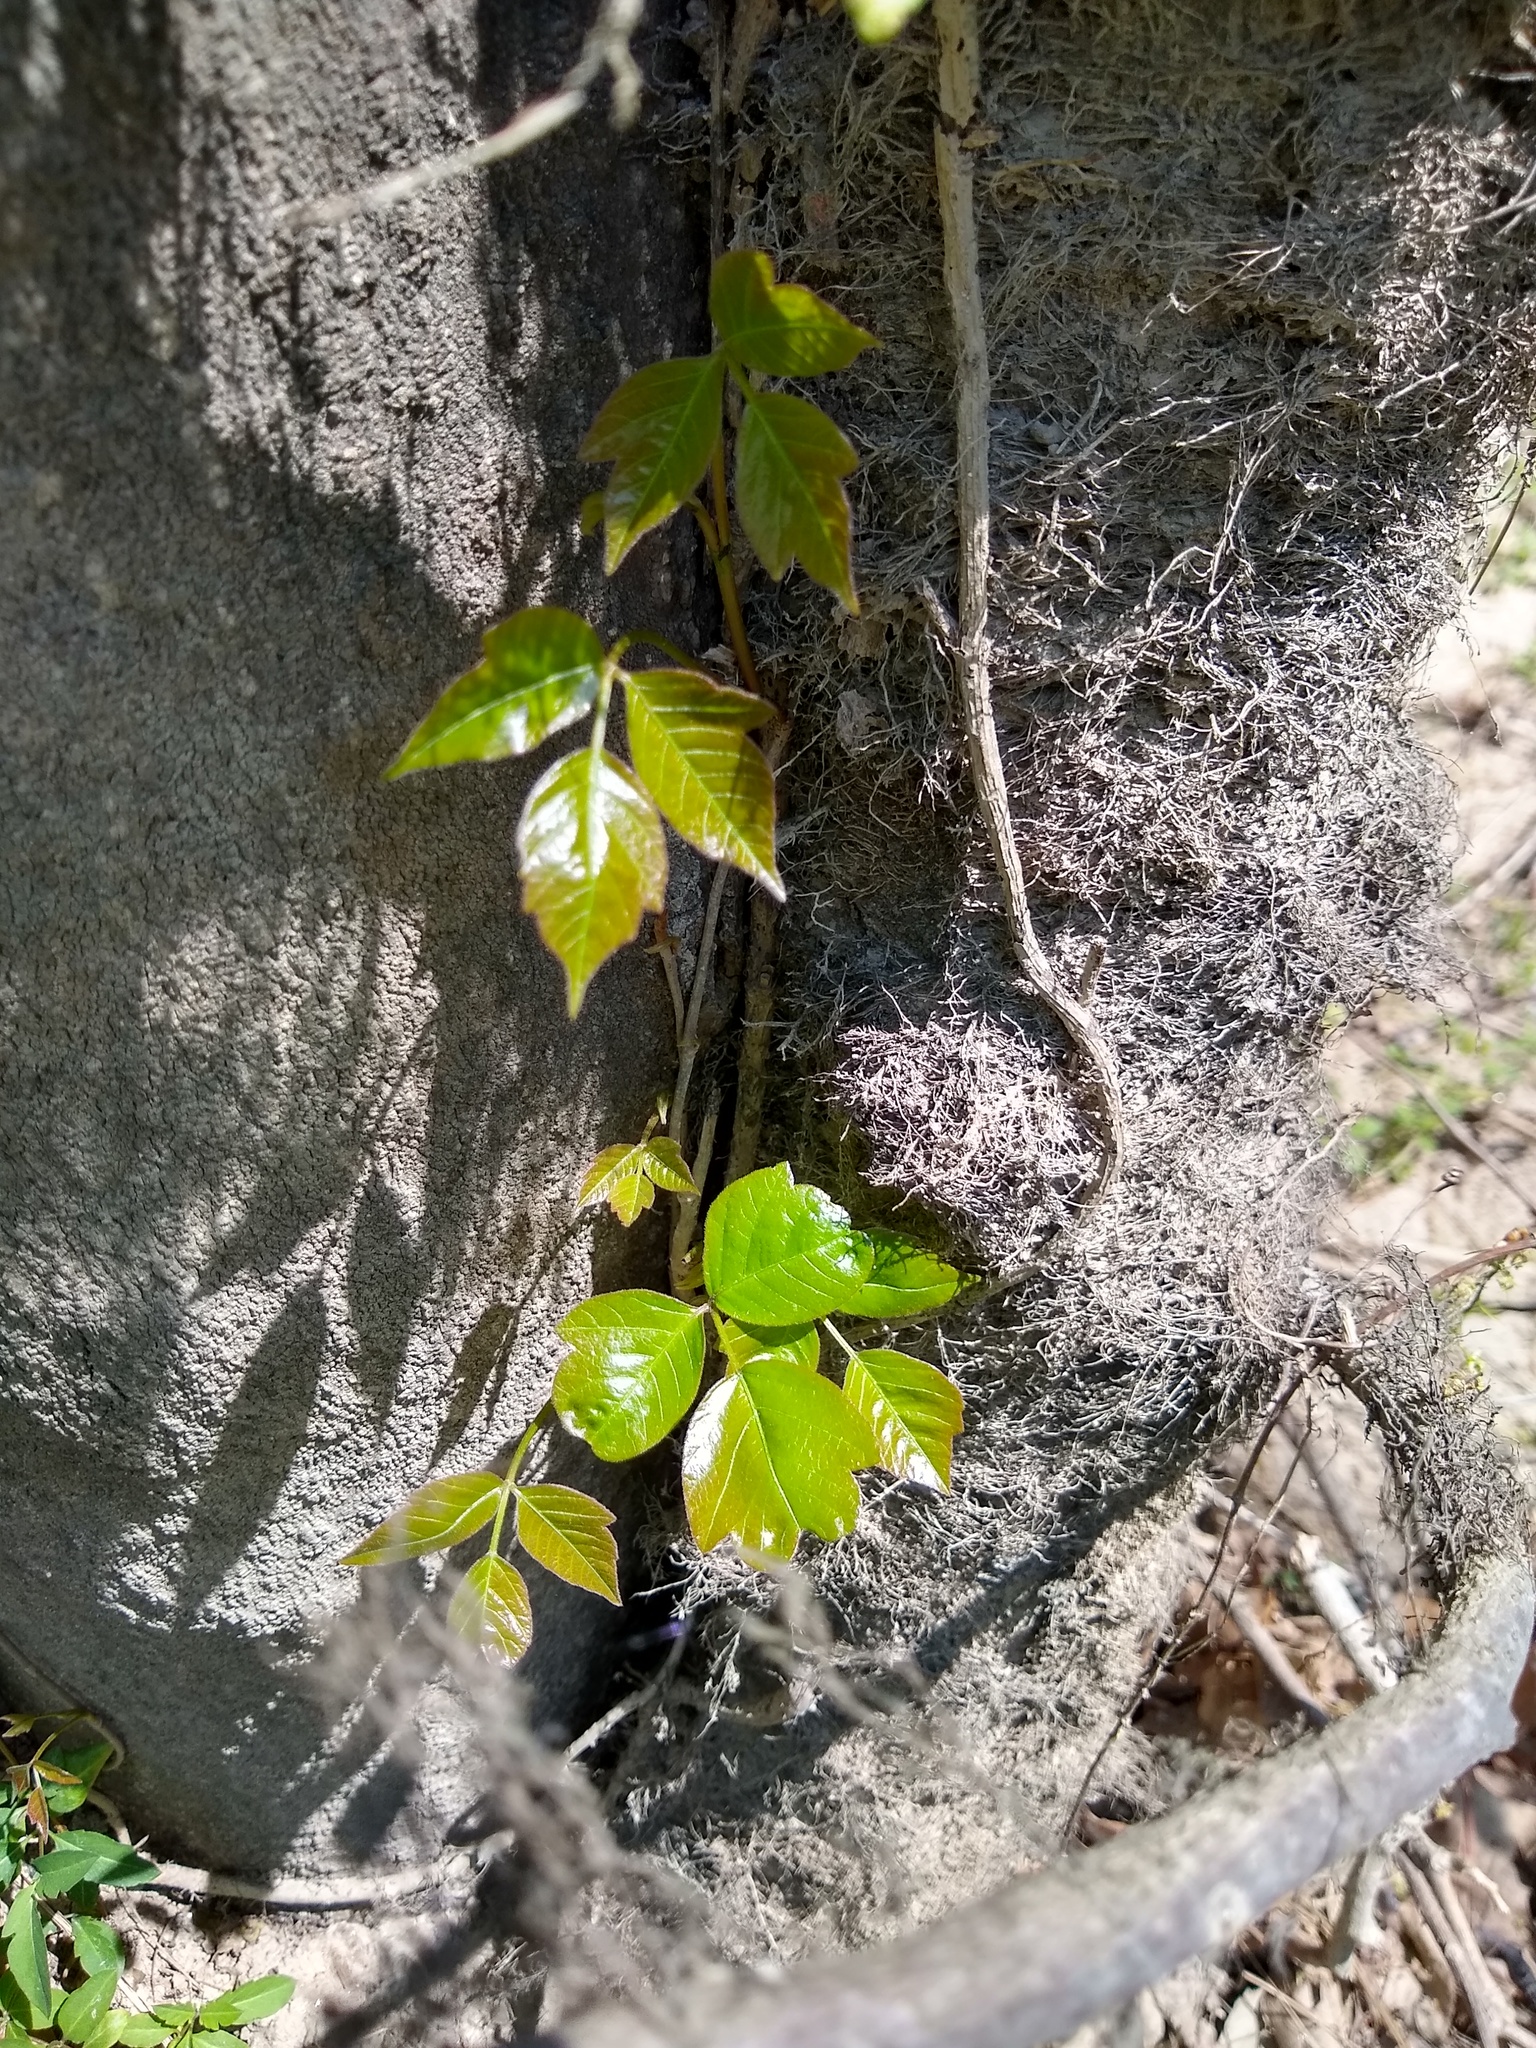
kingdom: Plantae
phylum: Tracheophyta
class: Magnoliopsida
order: Sapindales
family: Anacardiaceae
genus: Toxicodendron
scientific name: Toxicodendron radicans
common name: Poison ivy
